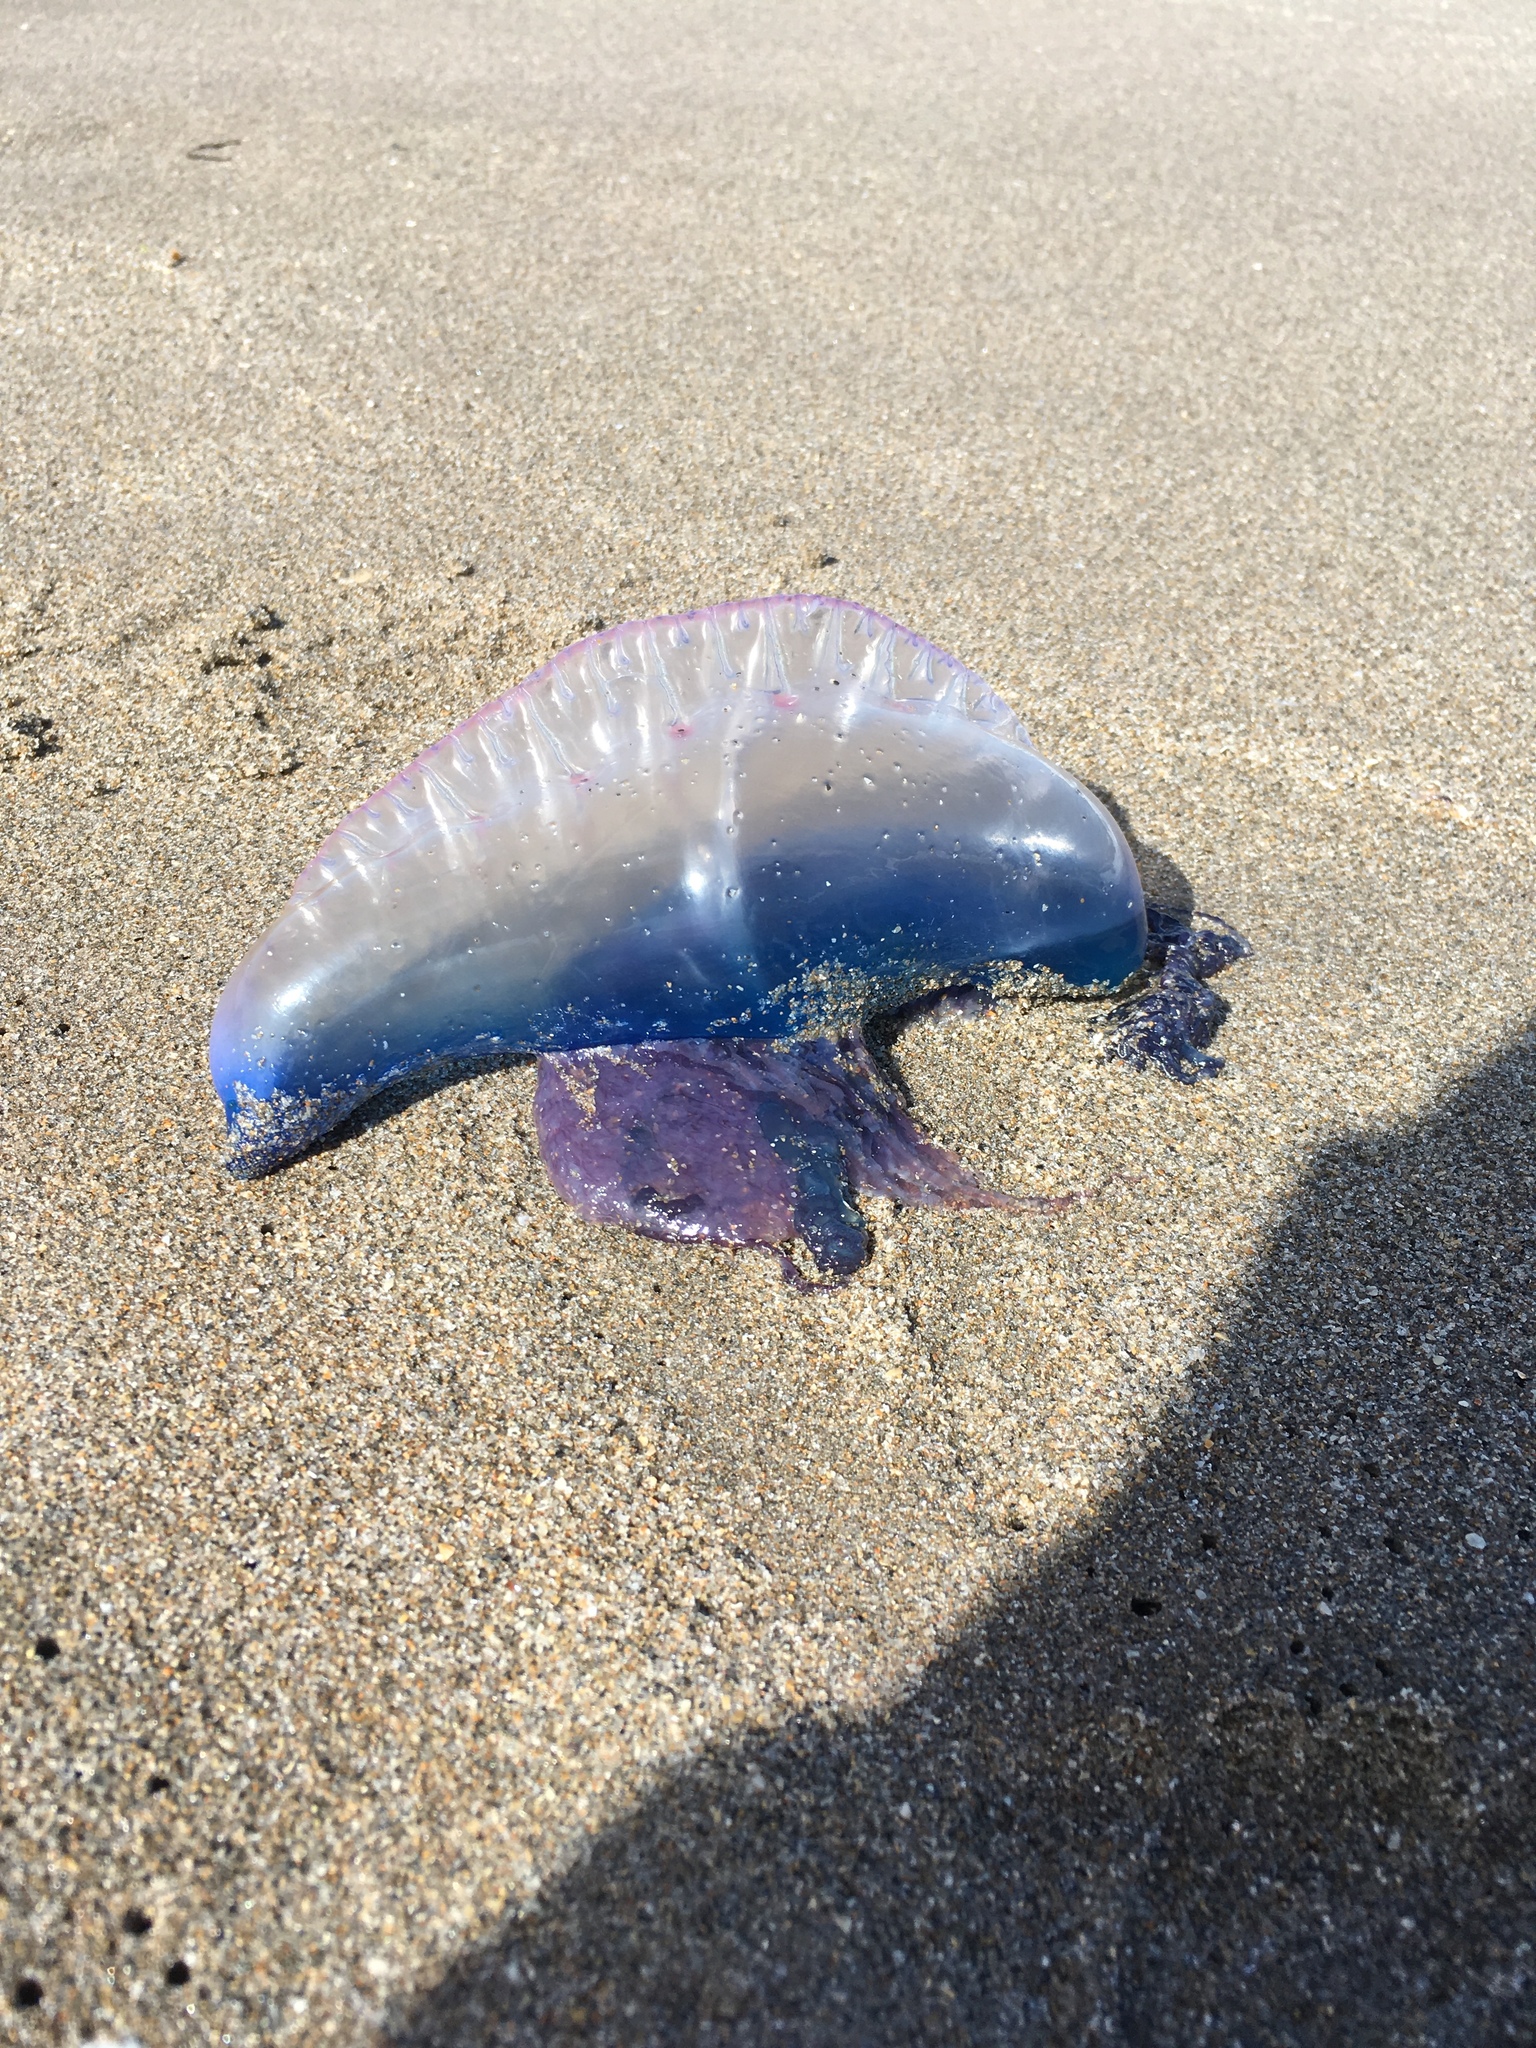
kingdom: Animalia
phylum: Cnidaria
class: Hydrozoa
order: Siphonophorae
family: Physaliidae
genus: Physalia
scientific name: Physalia physalis
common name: Portuguese man-of-war
